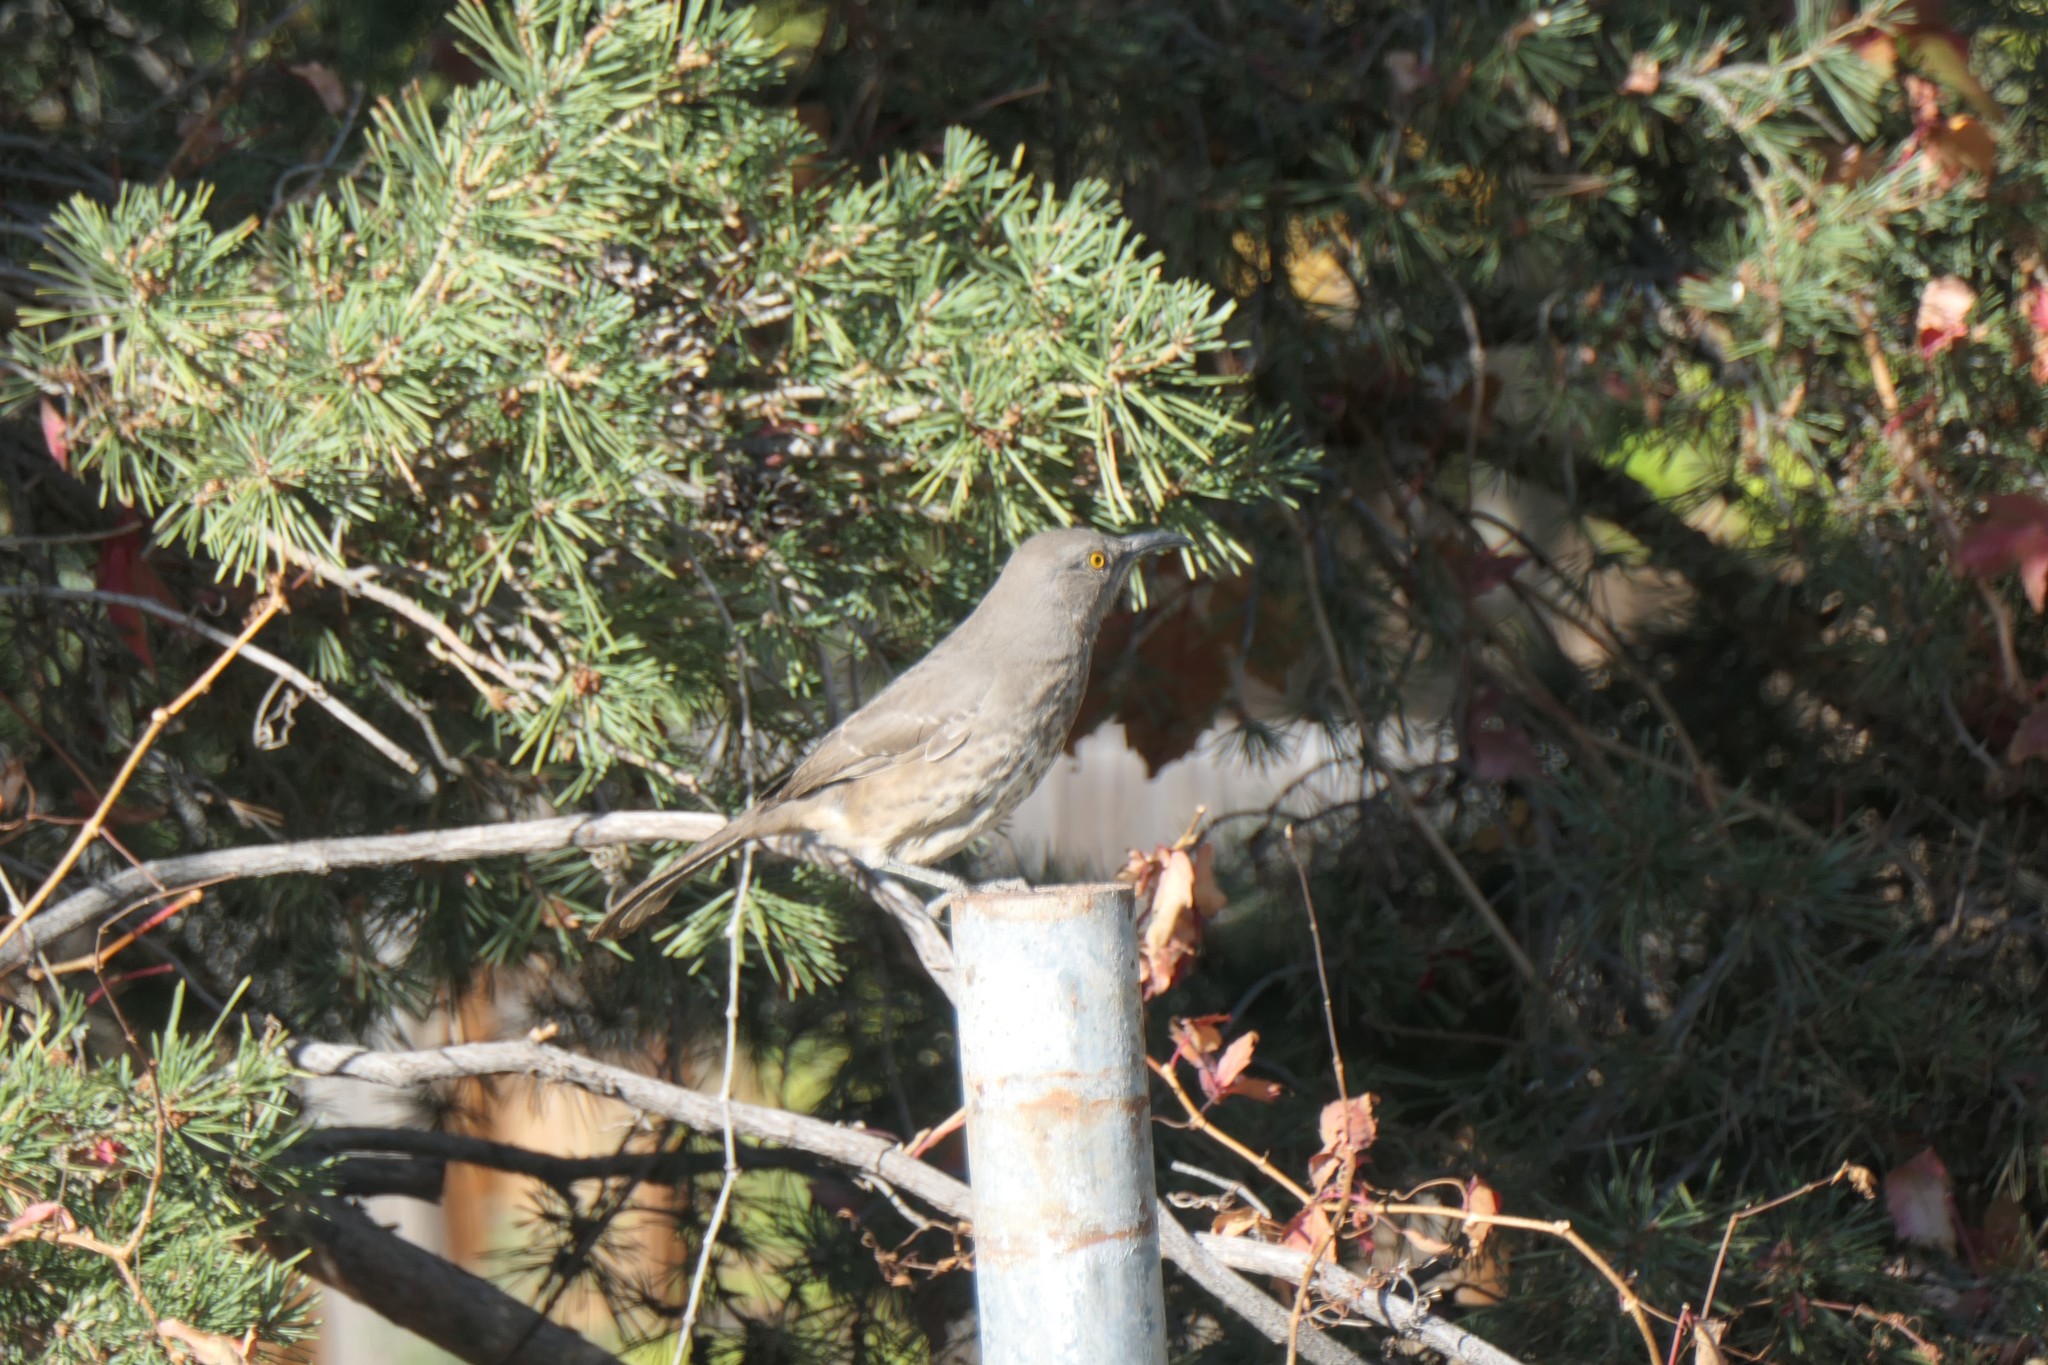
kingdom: Animalia
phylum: Chordata
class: Aves
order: Passeriformes
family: Mimidae
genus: Toxostoma
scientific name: Toxostoma curvirostre
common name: Curve-billed thrasher
